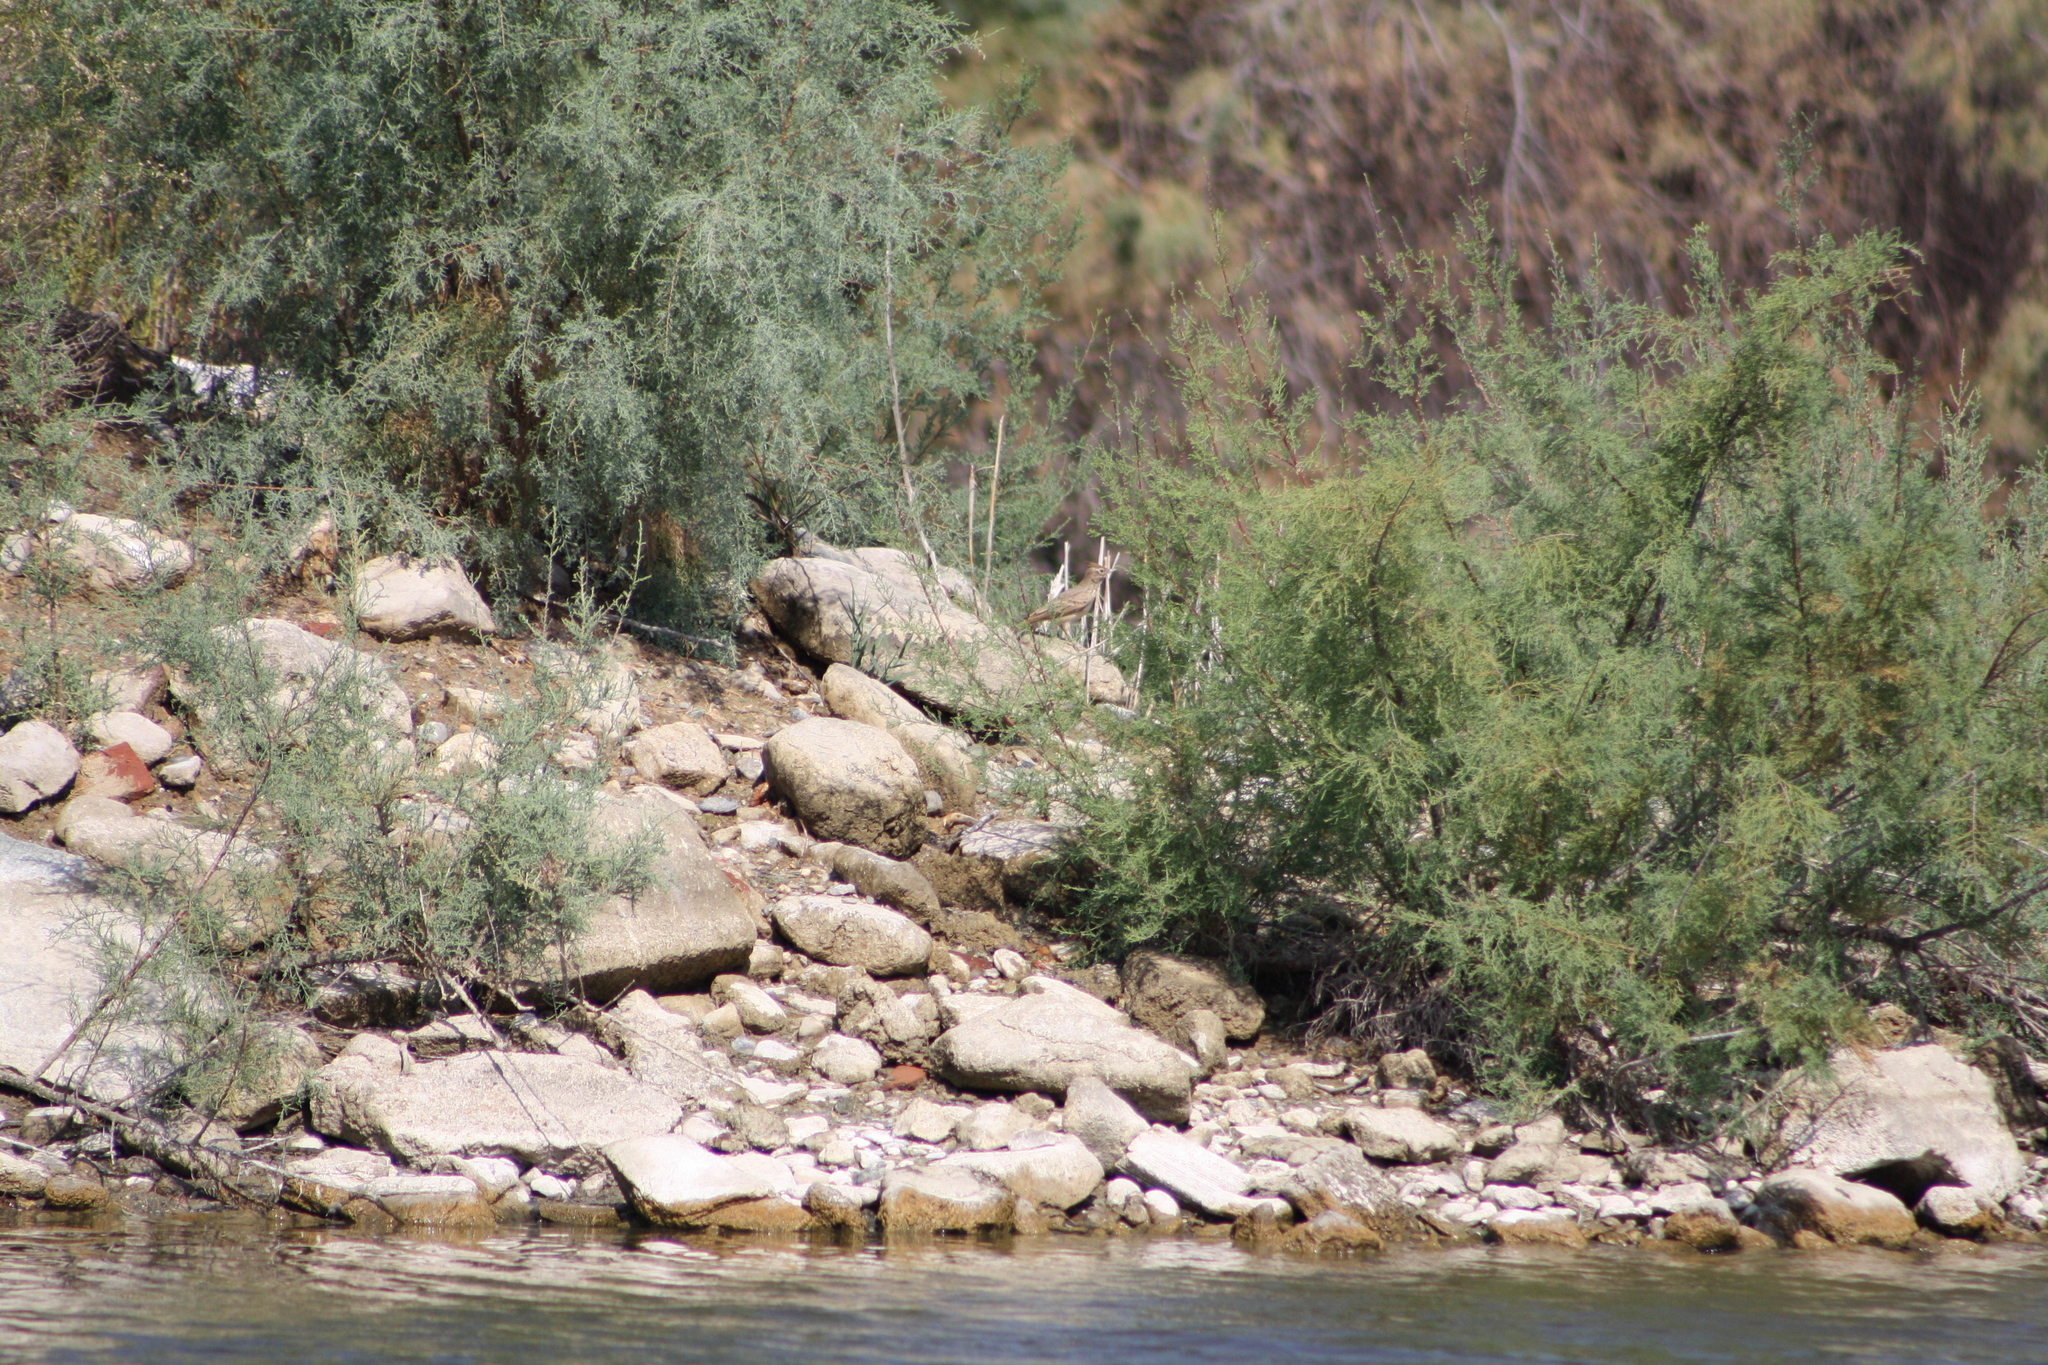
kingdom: Animalia
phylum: Chordata
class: Aves
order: Passeriformes
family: Alaudidae
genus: Galerida
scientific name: Galerida cristata
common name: Crested lark
